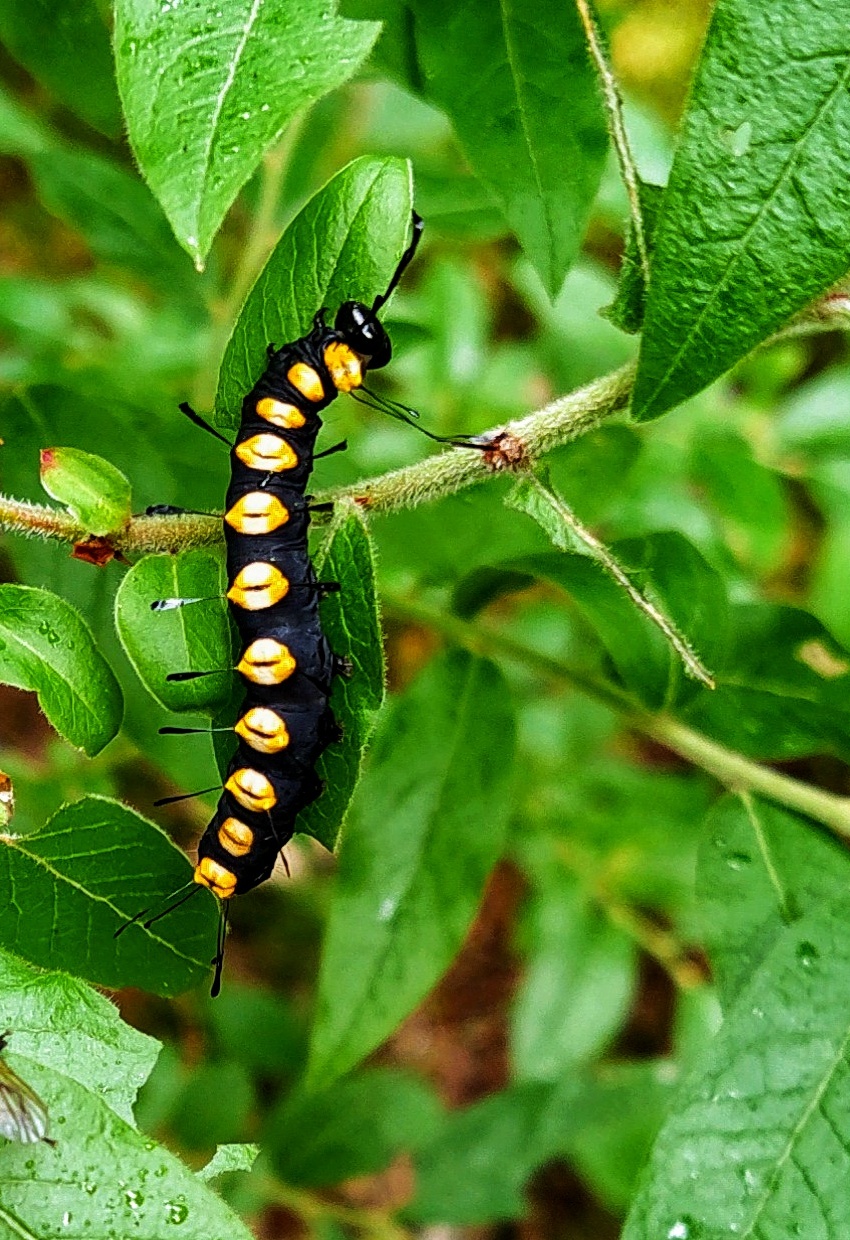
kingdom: Animalia
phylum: Arthropoda
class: Insecta
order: Lepidoptera
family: Noctuidae
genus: Acronicta
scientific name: Acronicta funeralis
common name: Funerary dagger
